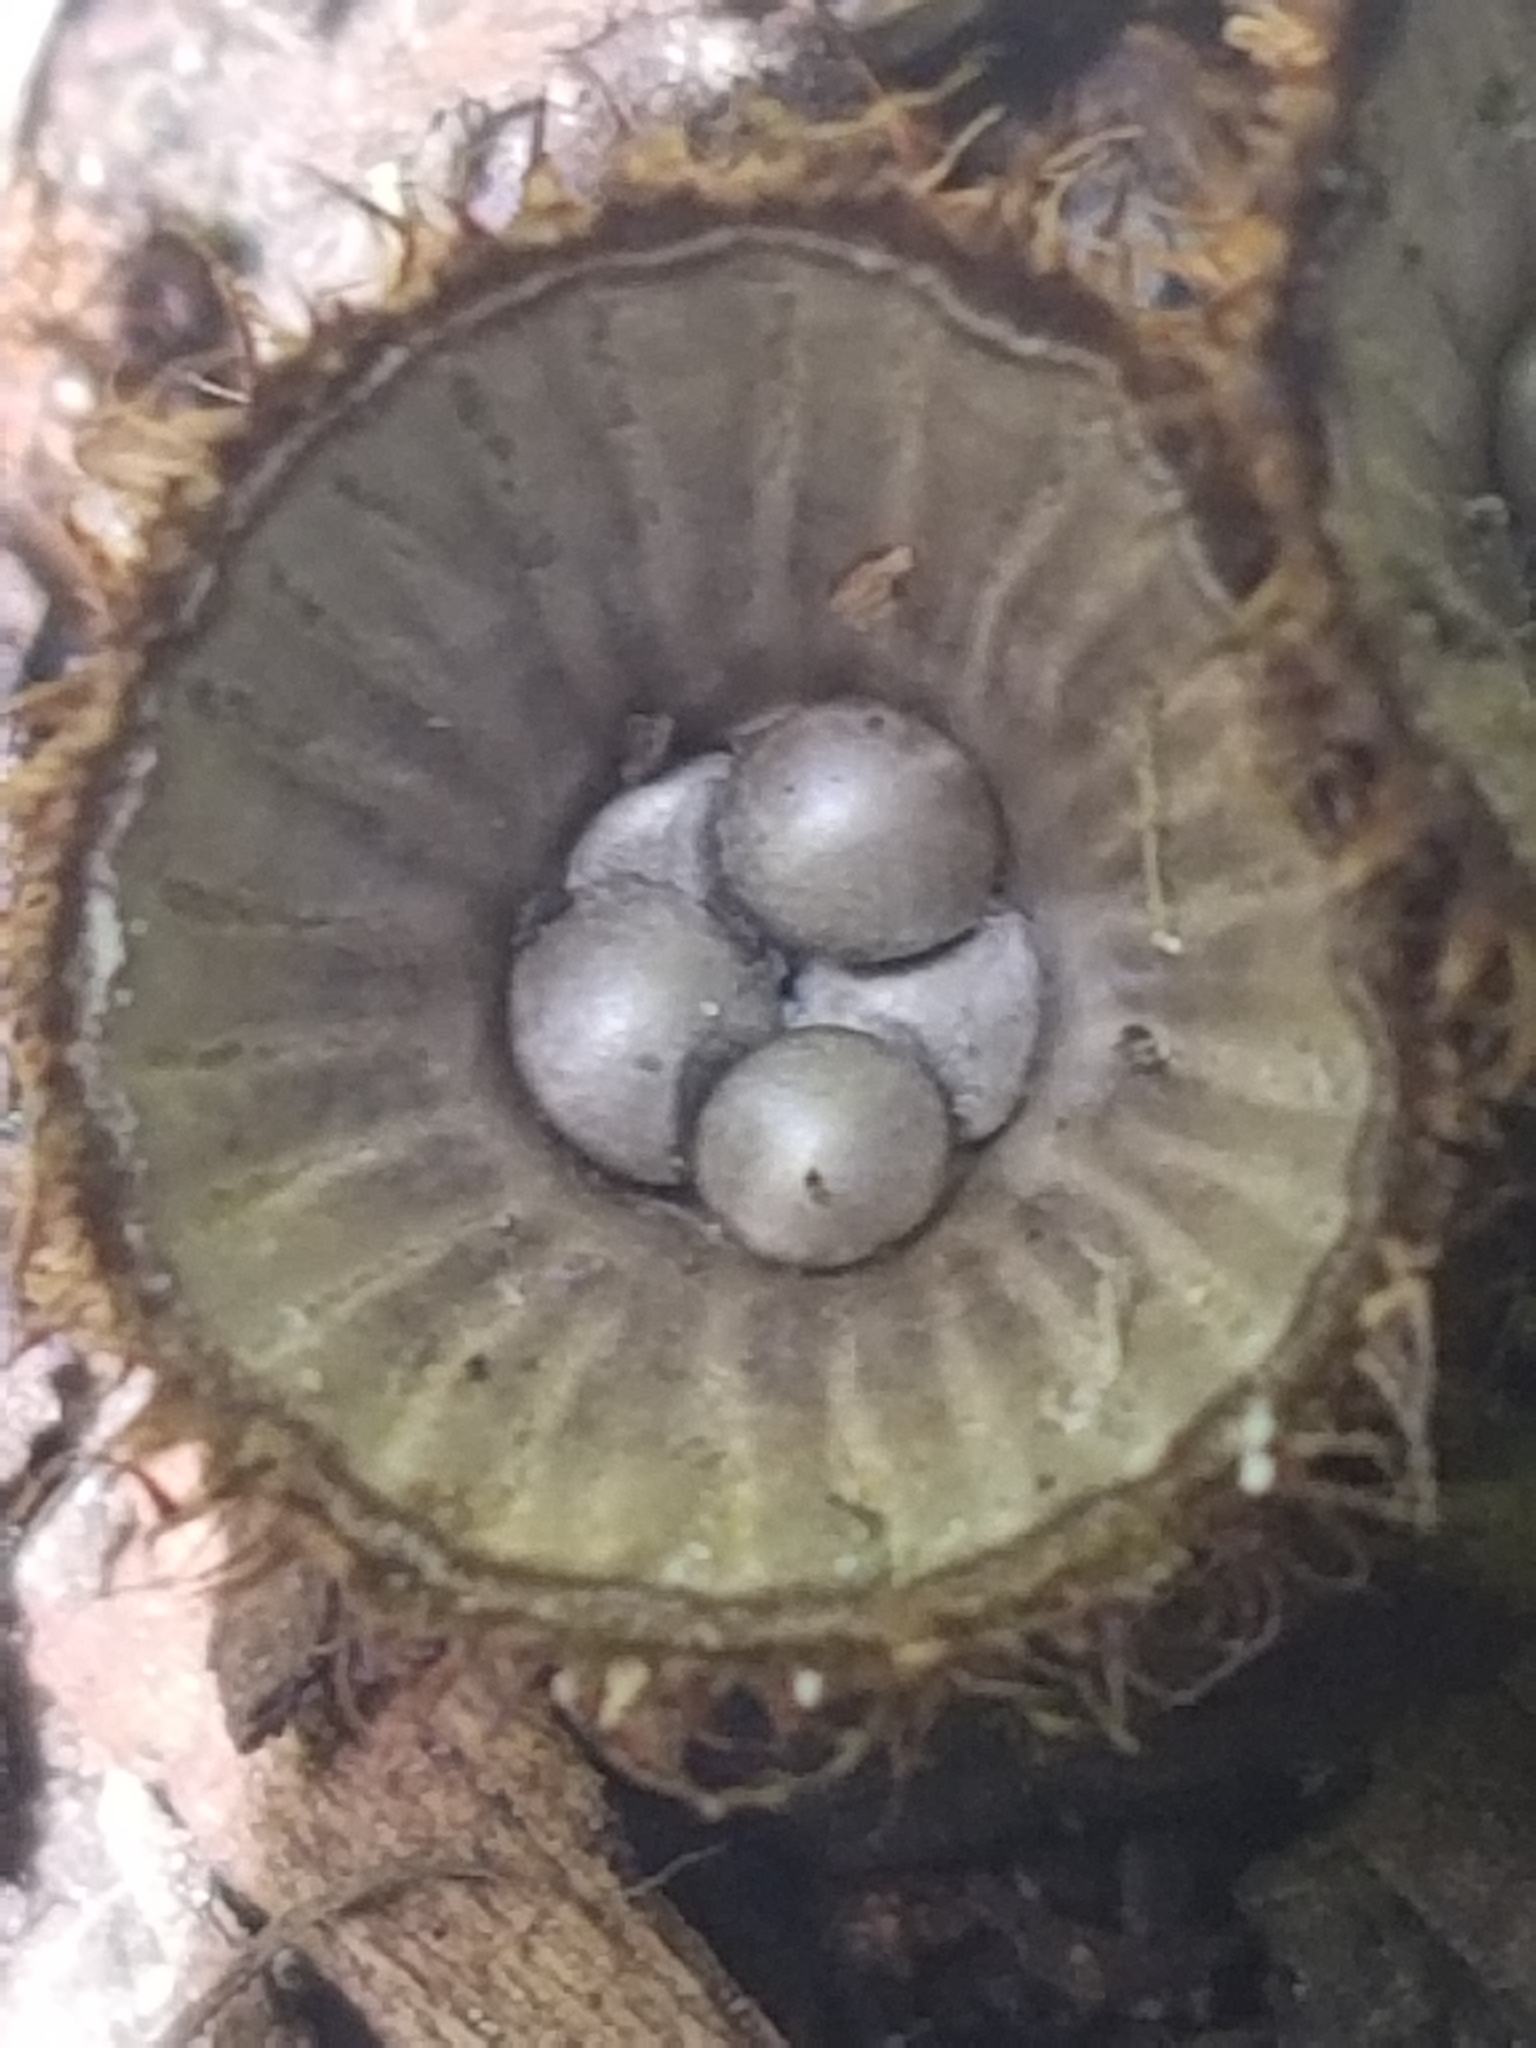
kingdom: Fungi
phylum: Basidiomycota
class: Agaricomycetes
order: Agaricales
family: Agaricaceae
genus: Cyathus
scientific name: Cyathus striatus
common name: Fluted bird's nest
